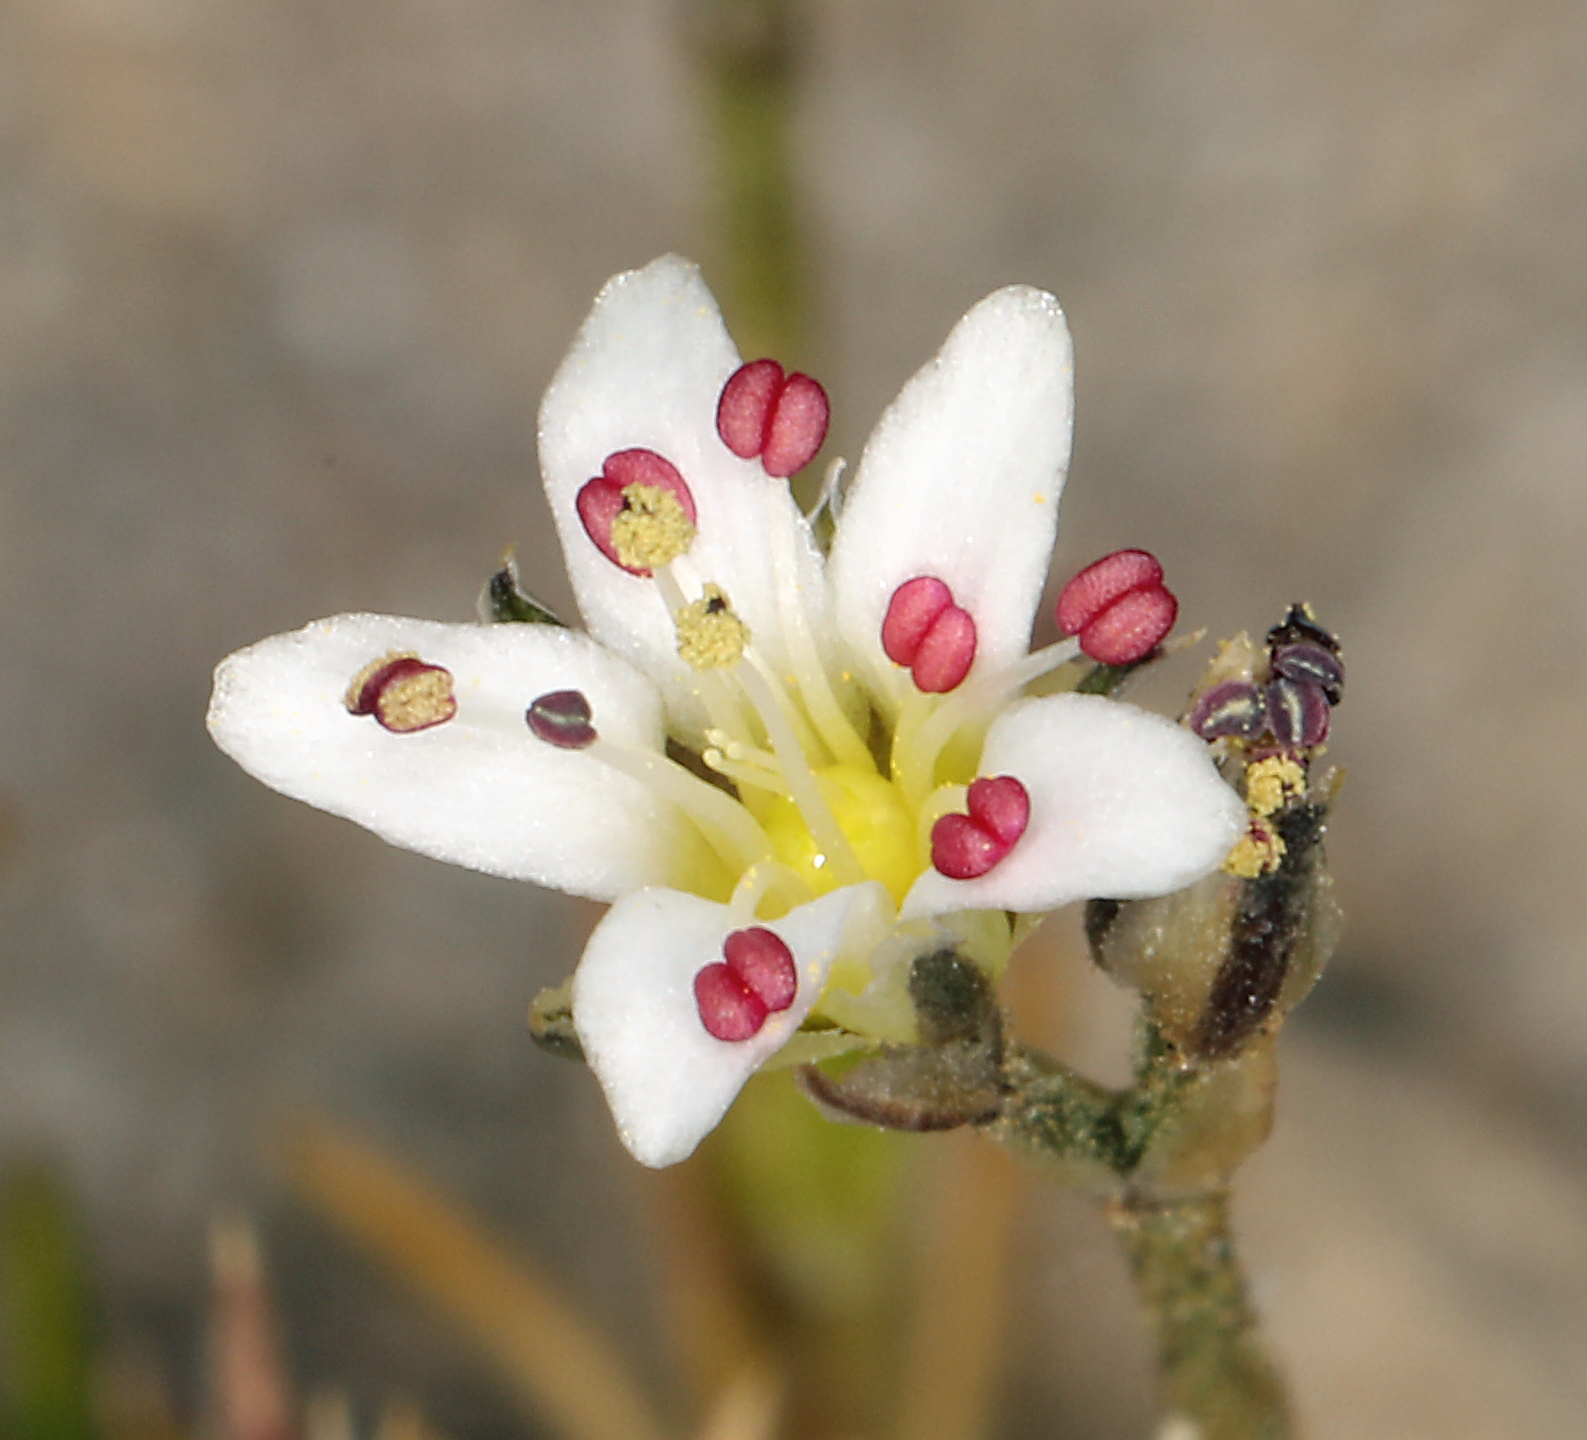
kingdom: Plantae
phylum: Tracheophyta
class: Magnoliopsida
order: Caryophyllales
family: Caryophyllaceae
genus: Eremogone
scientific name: Eremogone kingii
